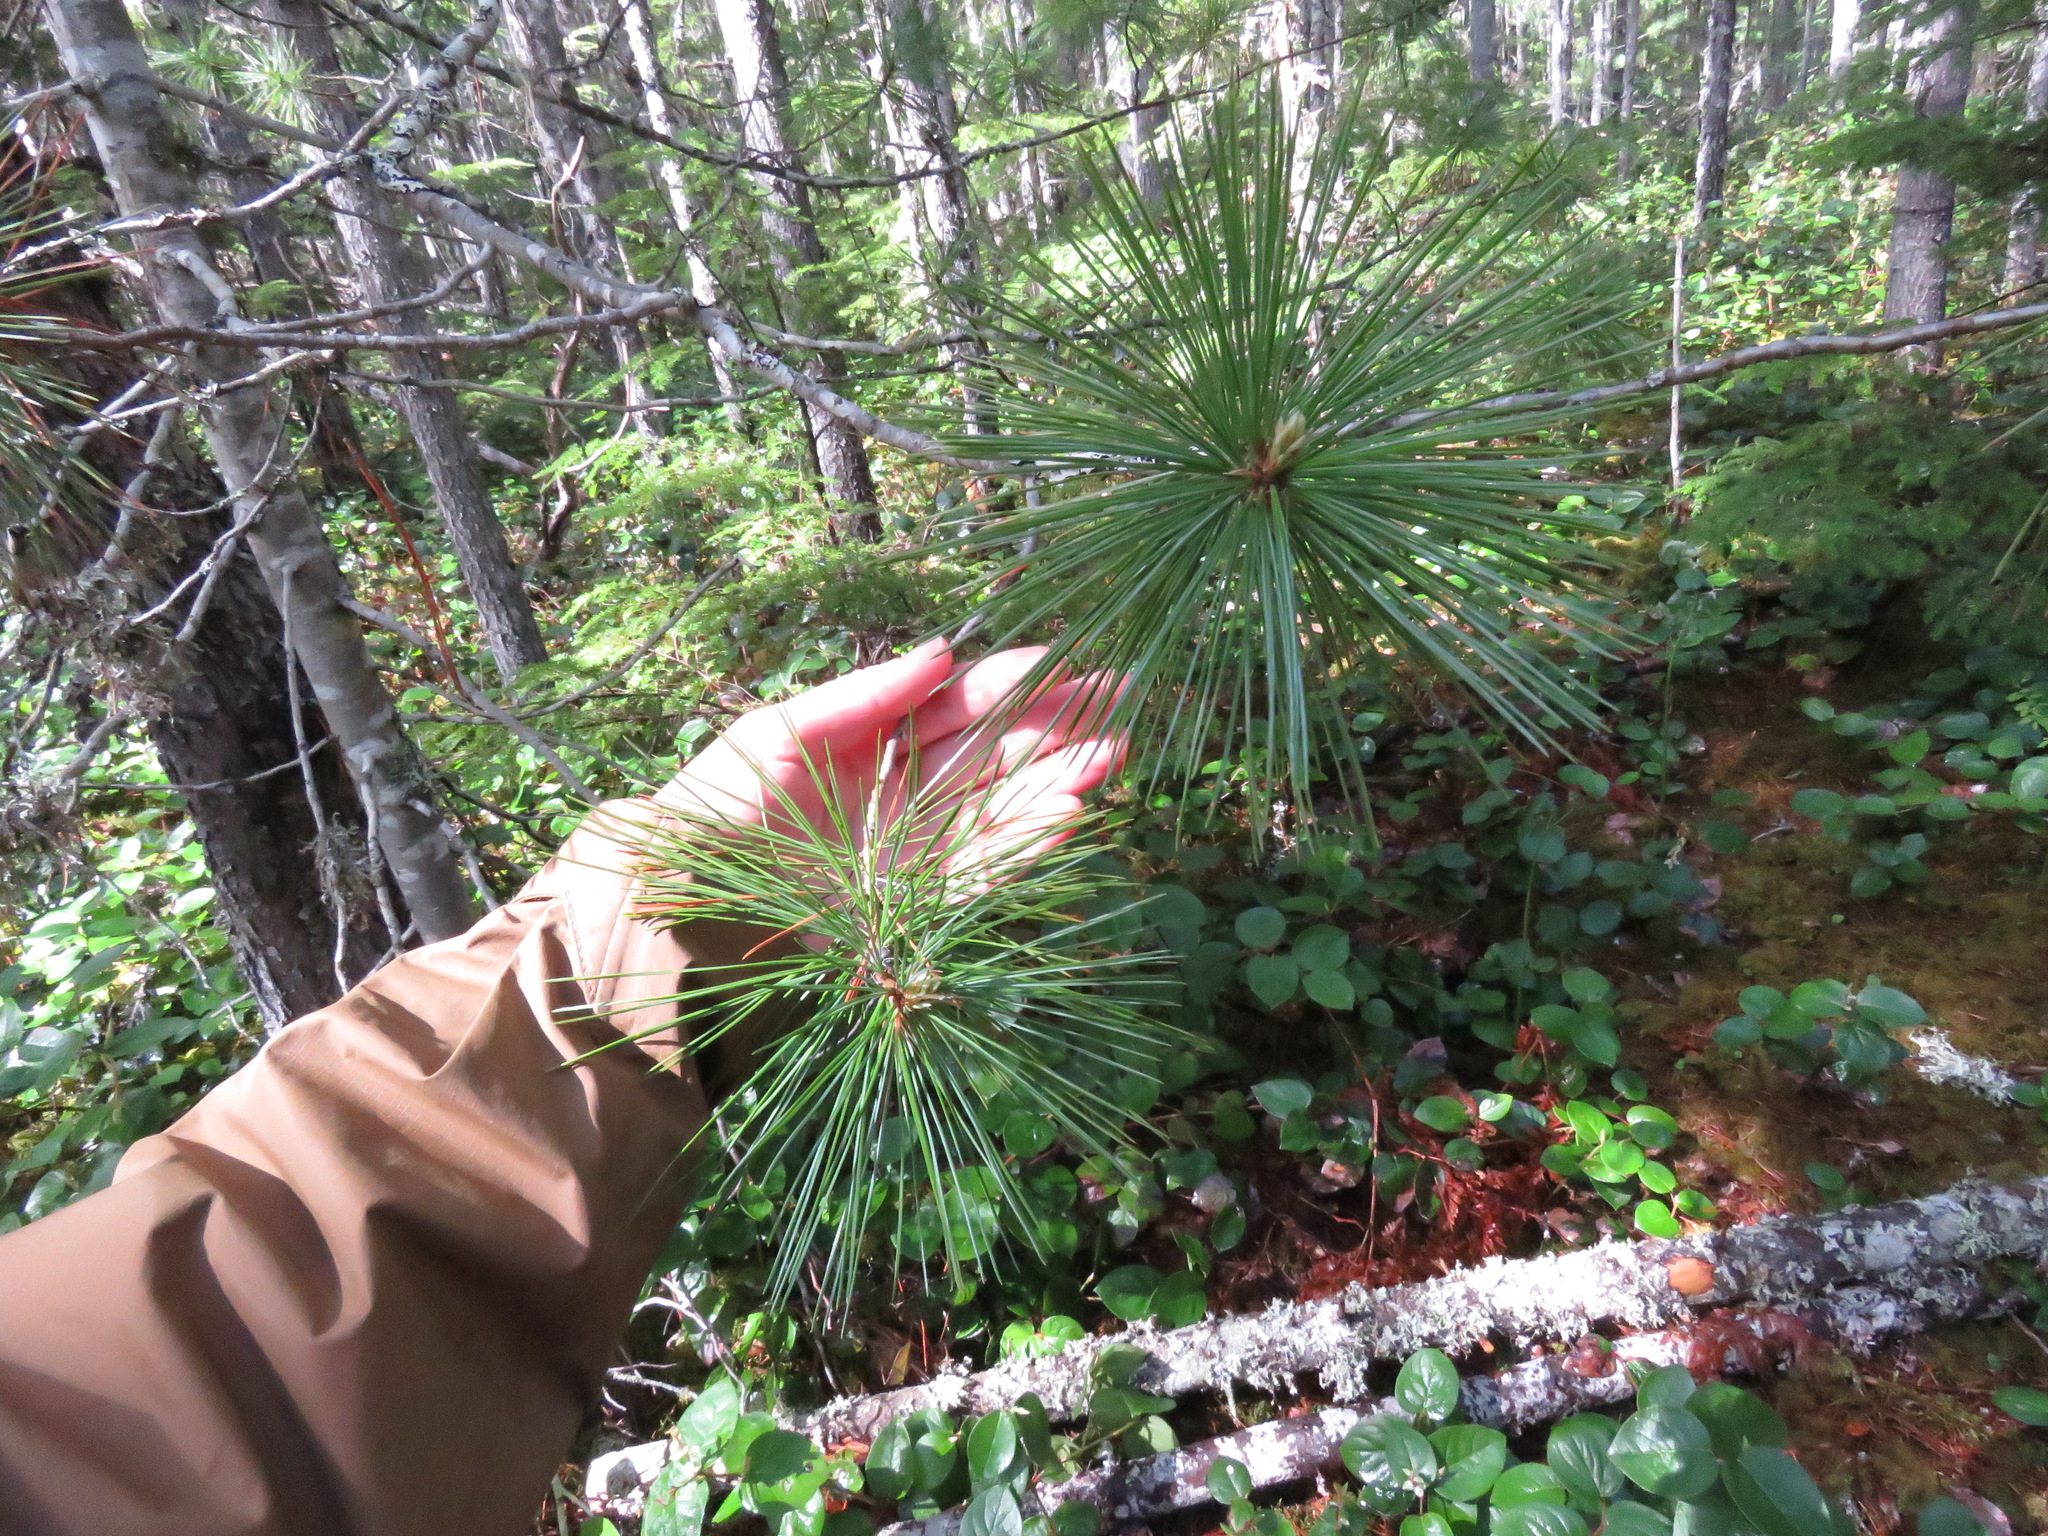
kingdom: Plantae
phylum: Tracheophyta
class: Pinopsida
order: Pinales
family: Pinaceae
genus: Pinus
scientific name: Pinus monticola
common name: Western white pine
